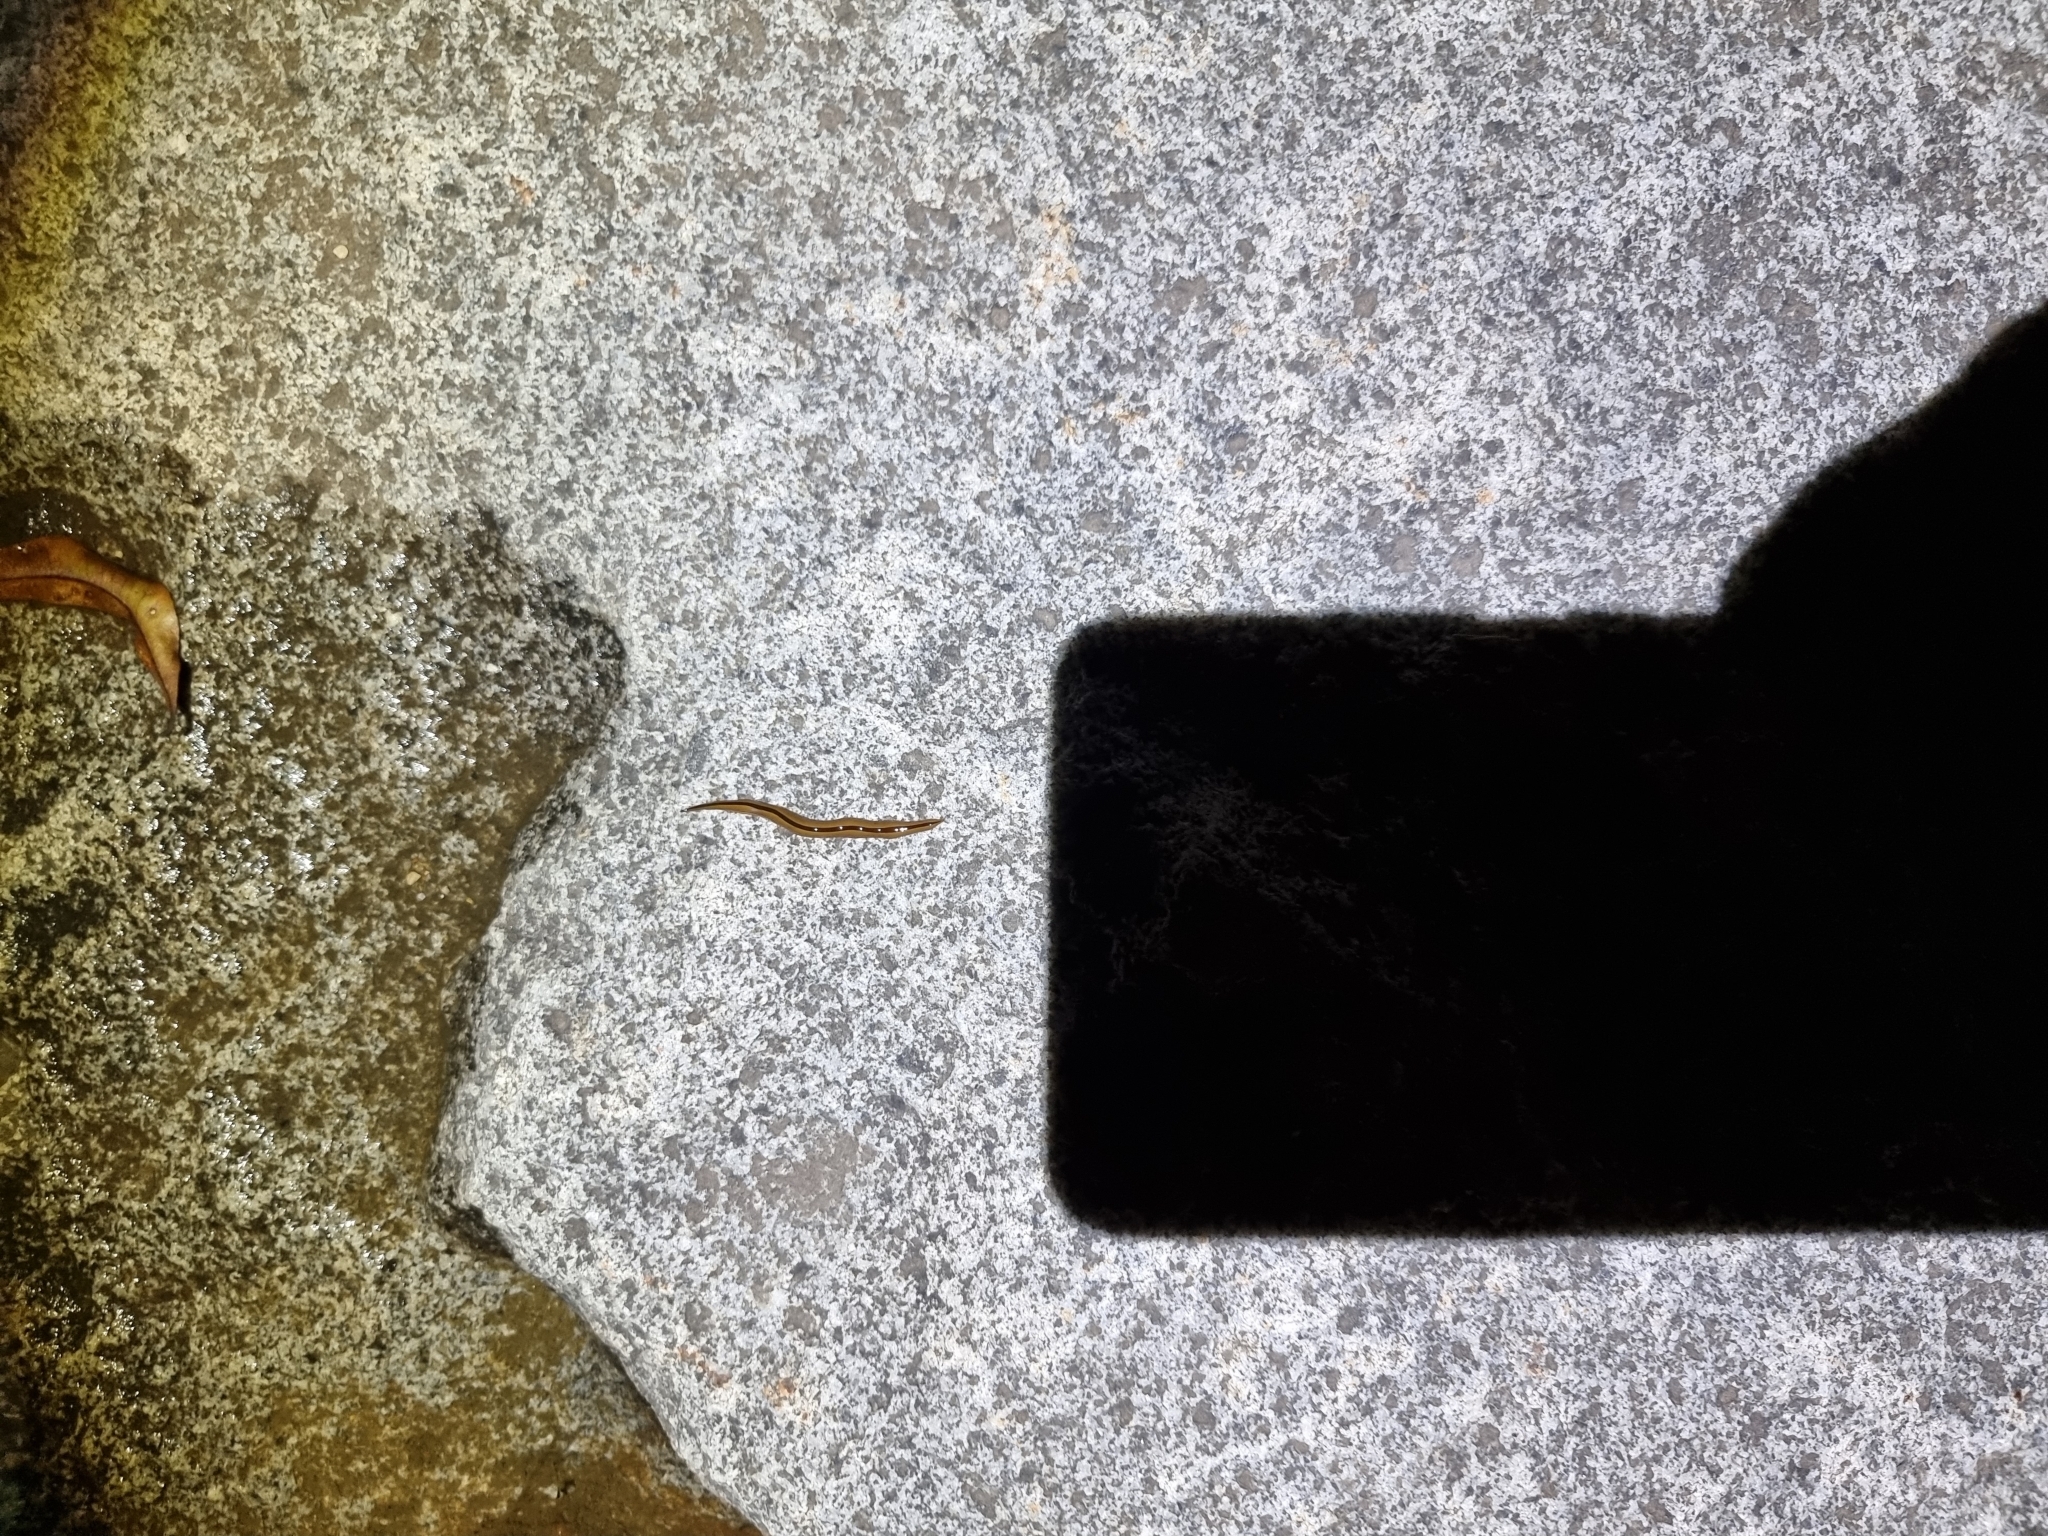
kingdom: Animalia
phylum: Platyhelminthes
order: Tricladida
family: Geoplanidae
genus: Australopacifica
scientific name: Australopacifica regina
